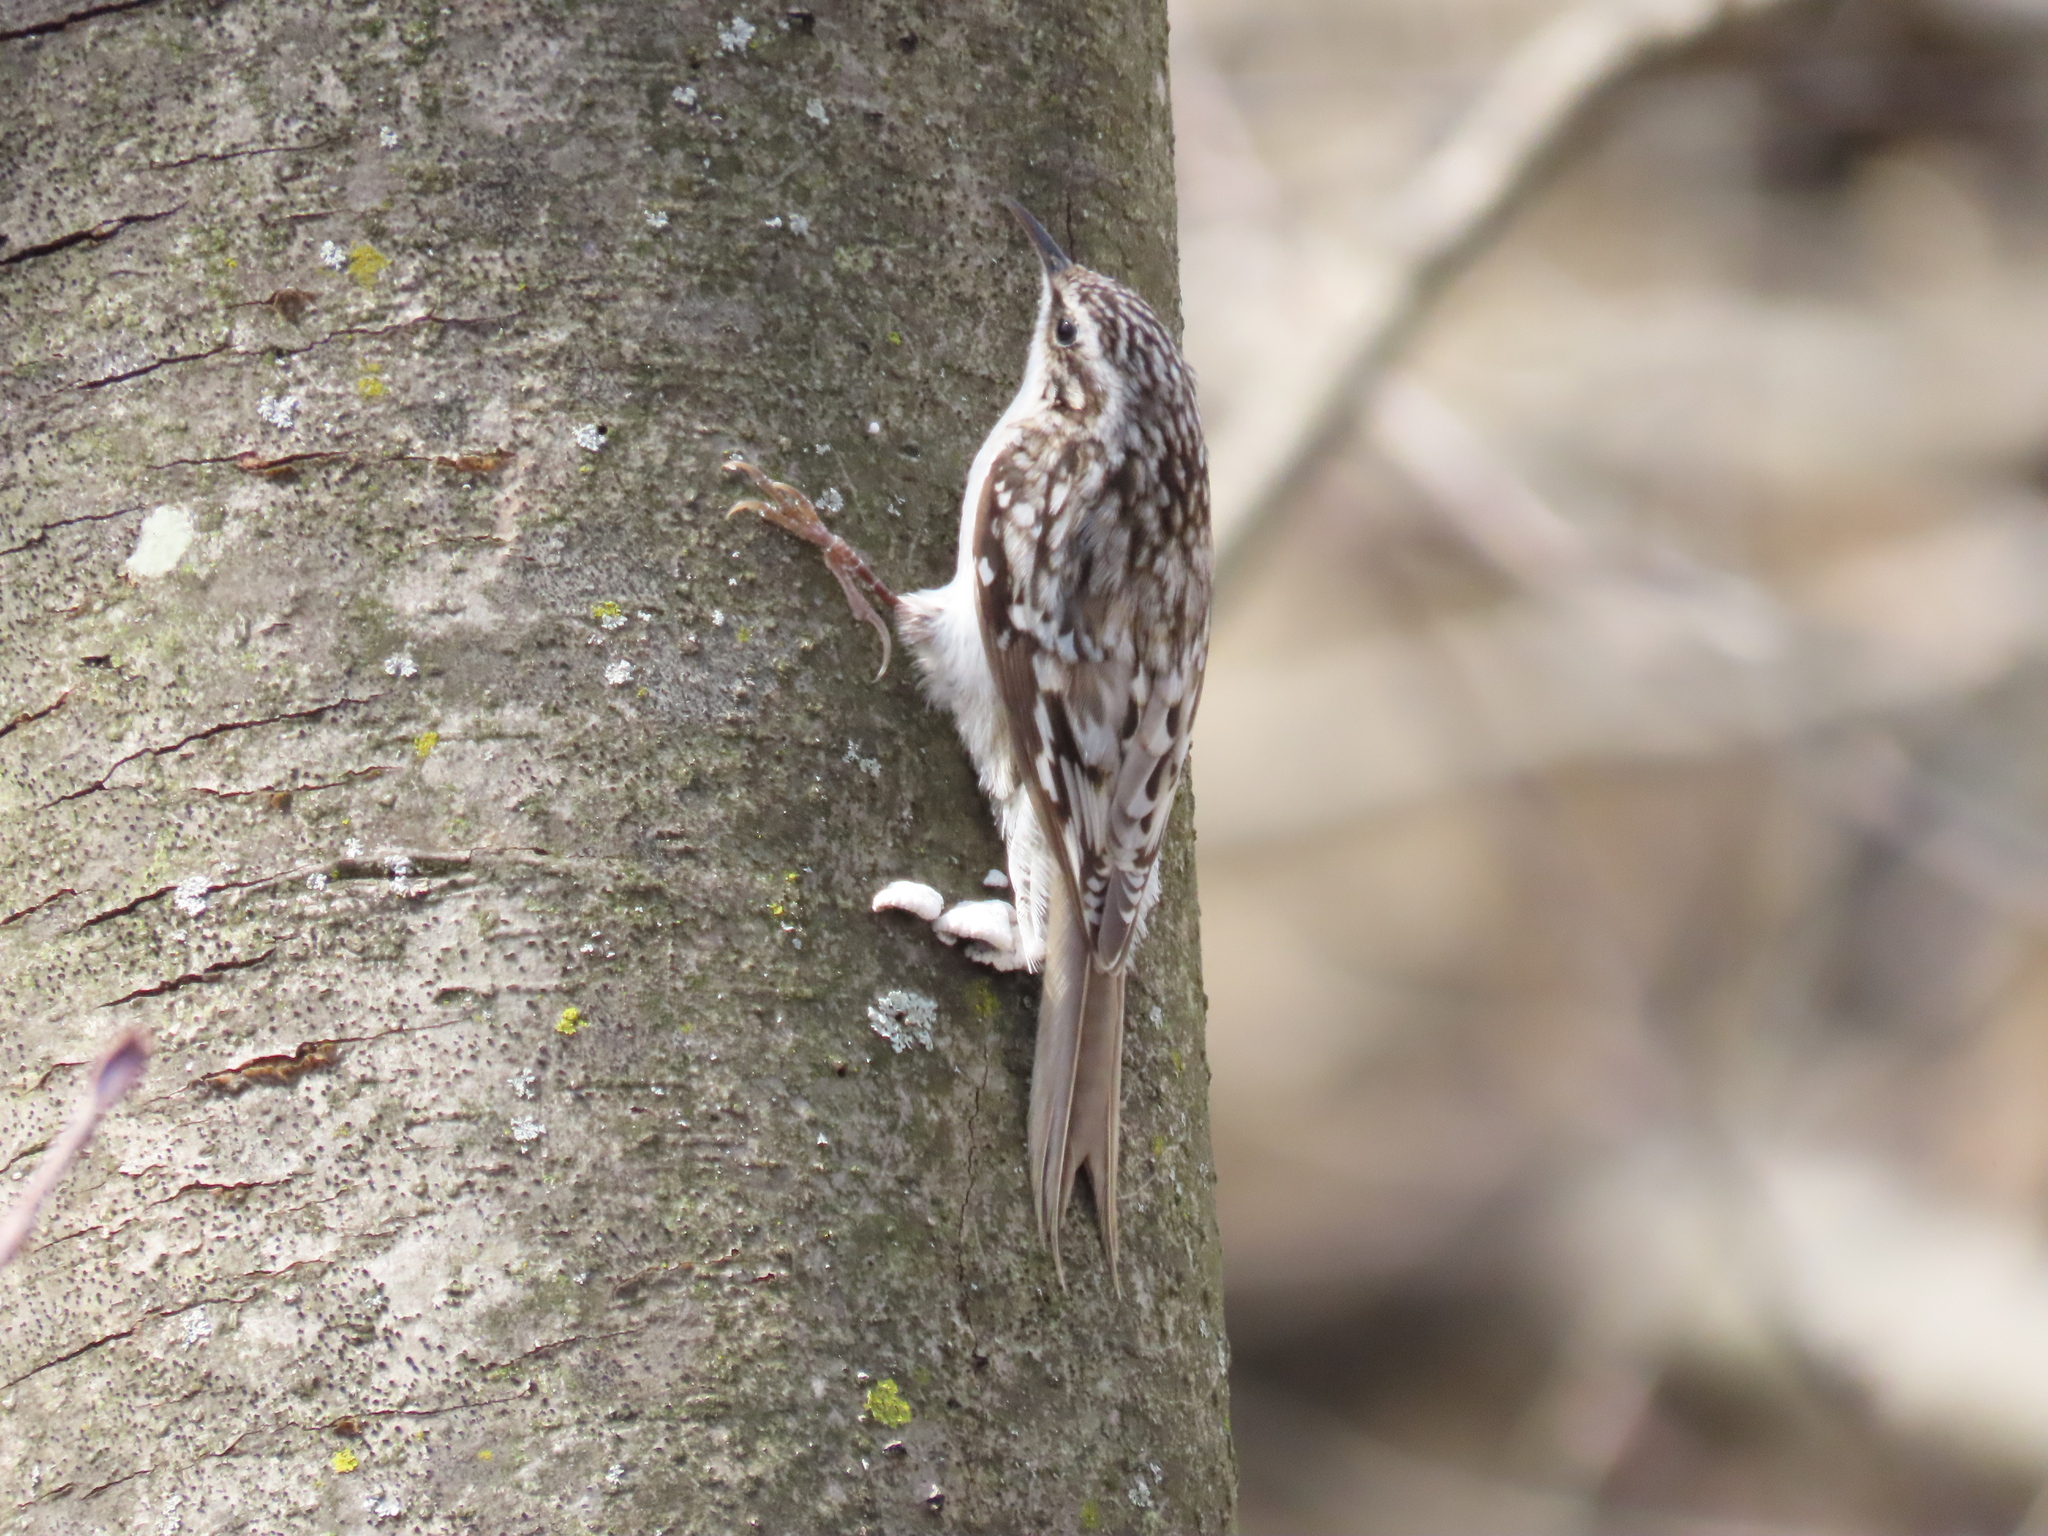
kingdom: Animalia
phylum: Chordata
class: Aves
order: Passeriformes
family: Certhiidae
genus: Certhia
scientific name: Certhia americana
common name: Brown creeper
